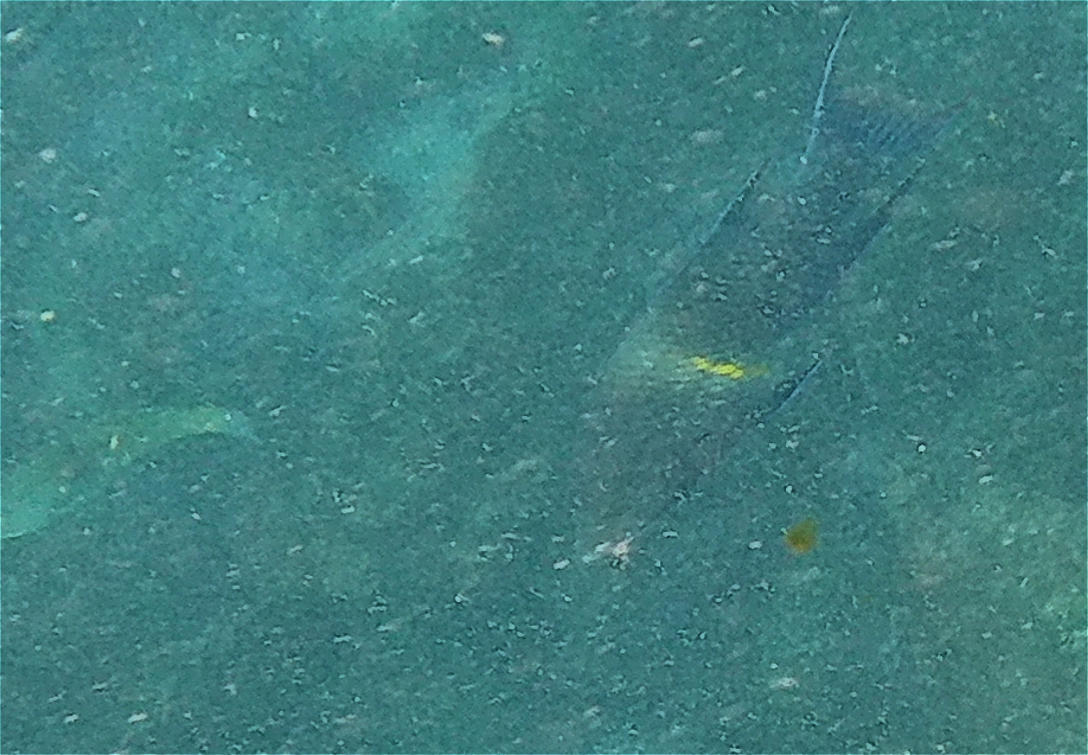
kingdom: Animalia
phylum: Chordata
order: Perciformes
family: Labridae
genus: Bodianus
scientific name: Bodianus diplotaenia
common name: Mexican hogfish
